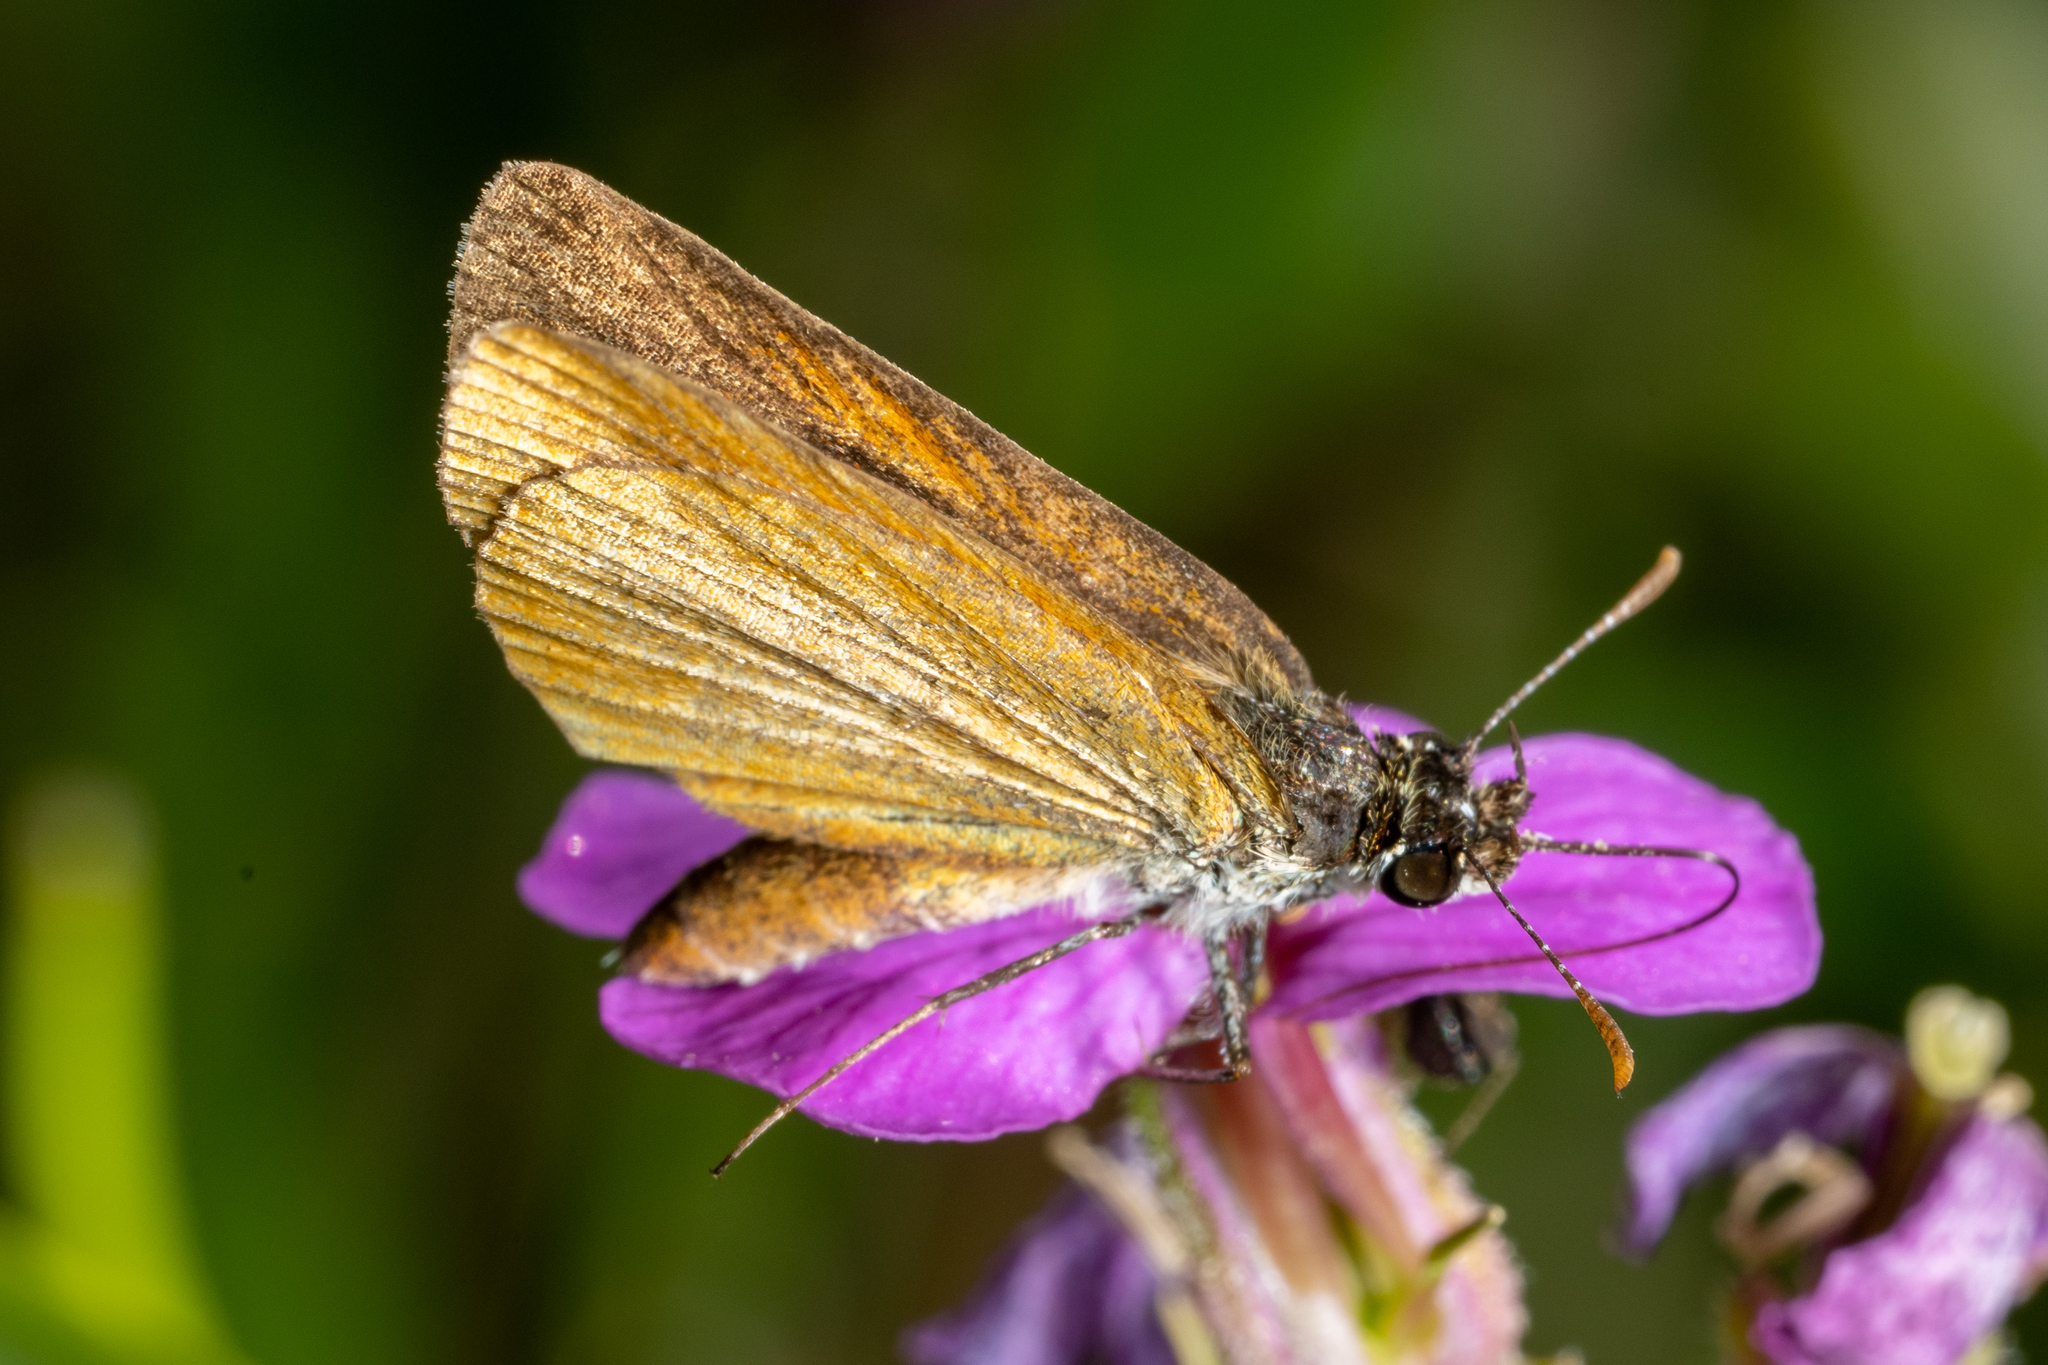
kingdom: Animalia
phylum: Arthropoda
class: Insecta
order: Lepidoptera
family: Hesperiidae
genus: Ancyloxypha
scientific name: Ancyloxypha numitor
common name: Least skipper
